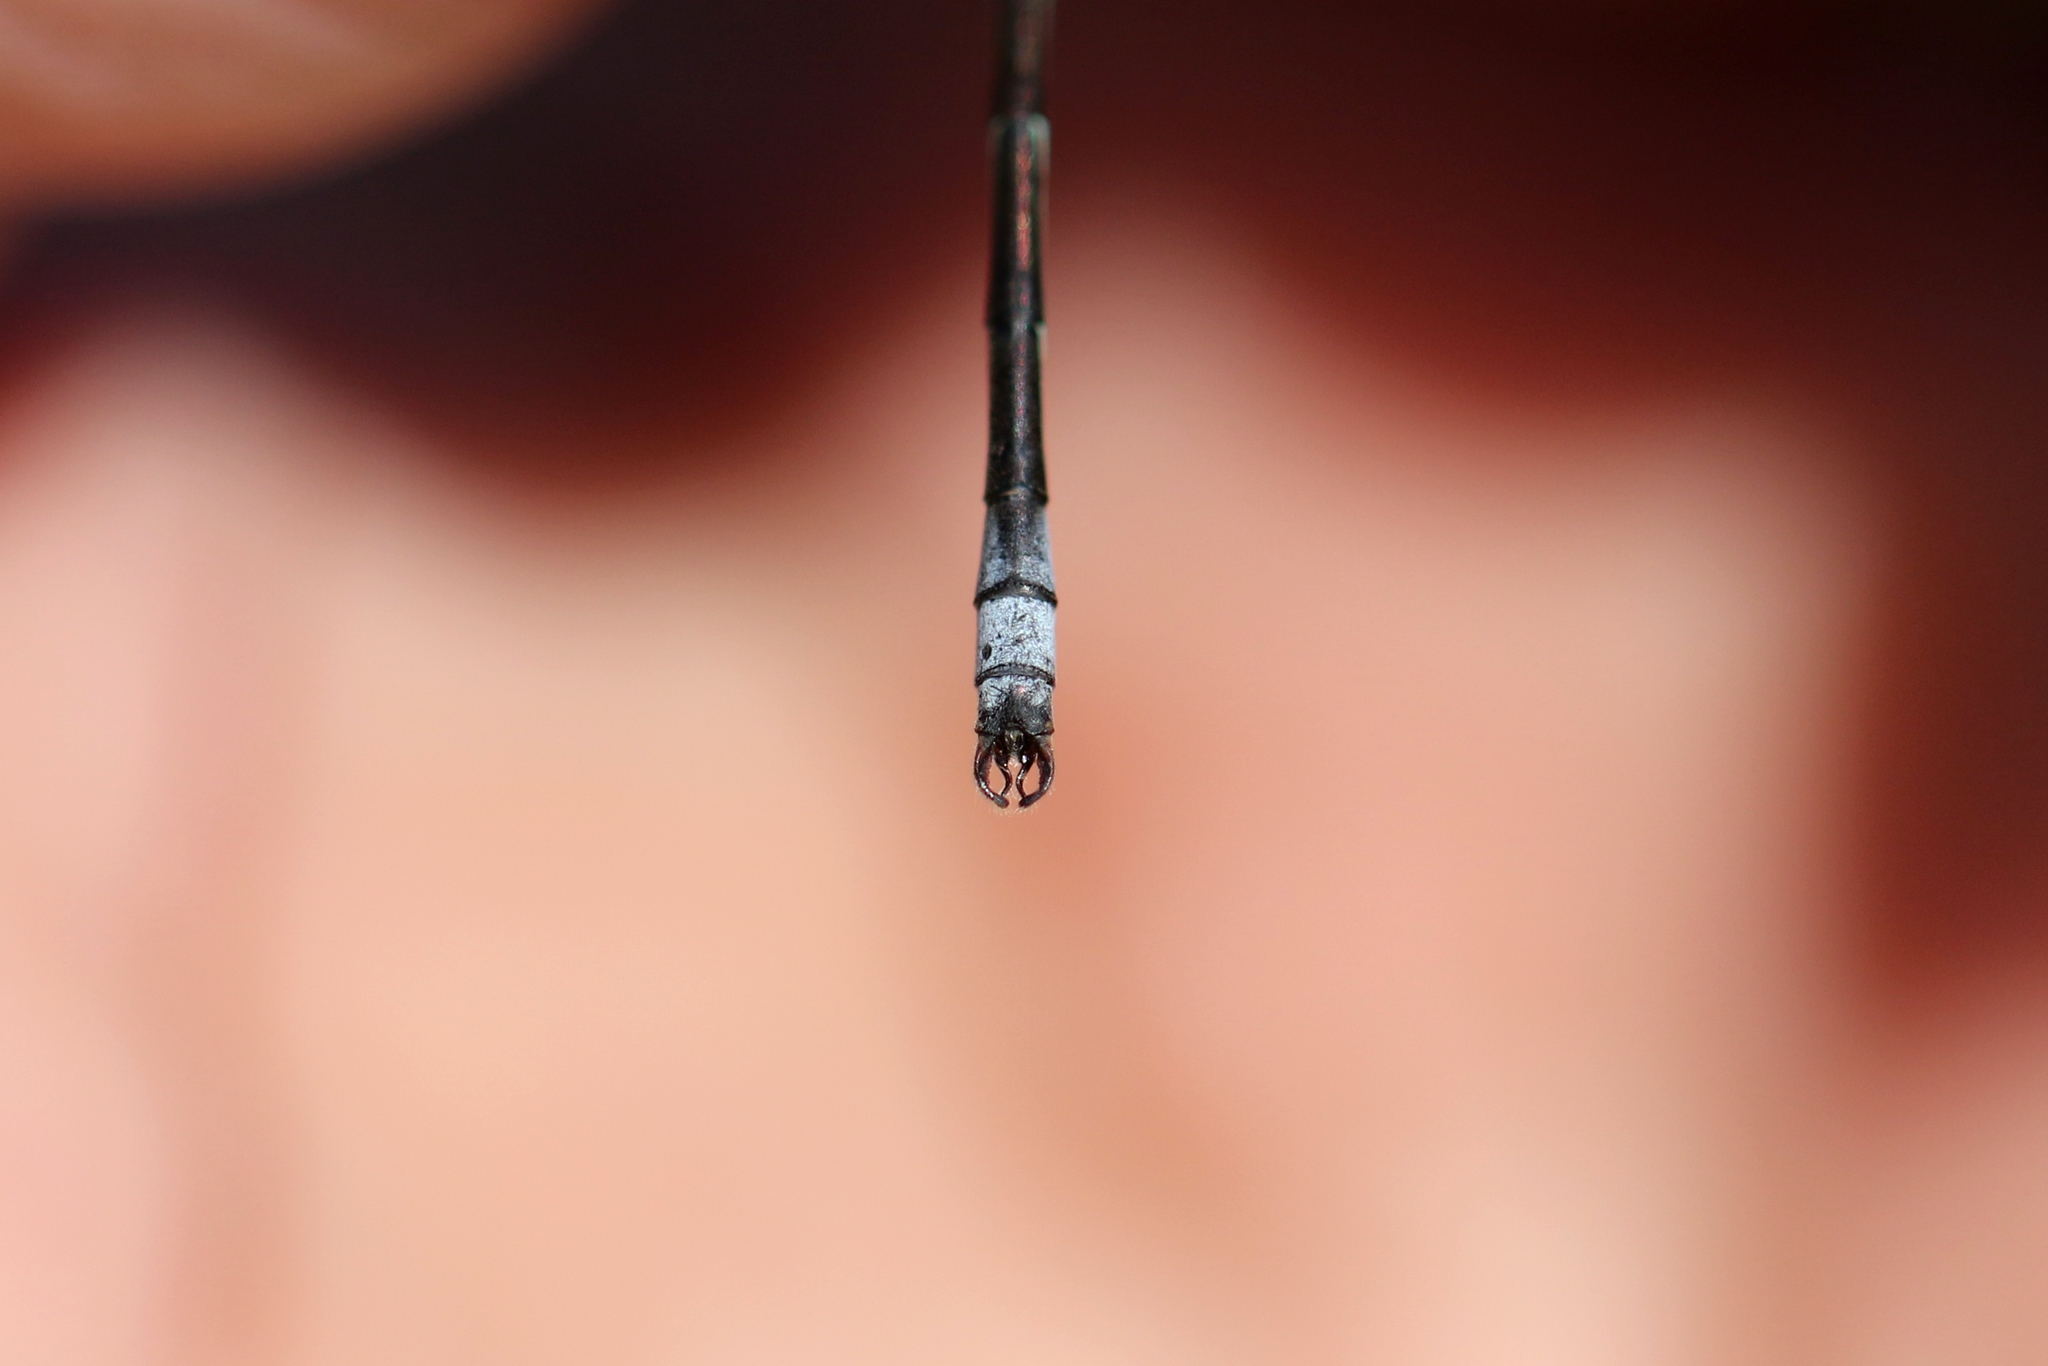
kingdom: Animalia
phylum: Arthropoda
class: Insecta
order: Odonata
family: Lestidae
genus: Lestes
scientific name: Lestes unguiculatus
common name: Lyre-tipped spreadwing
